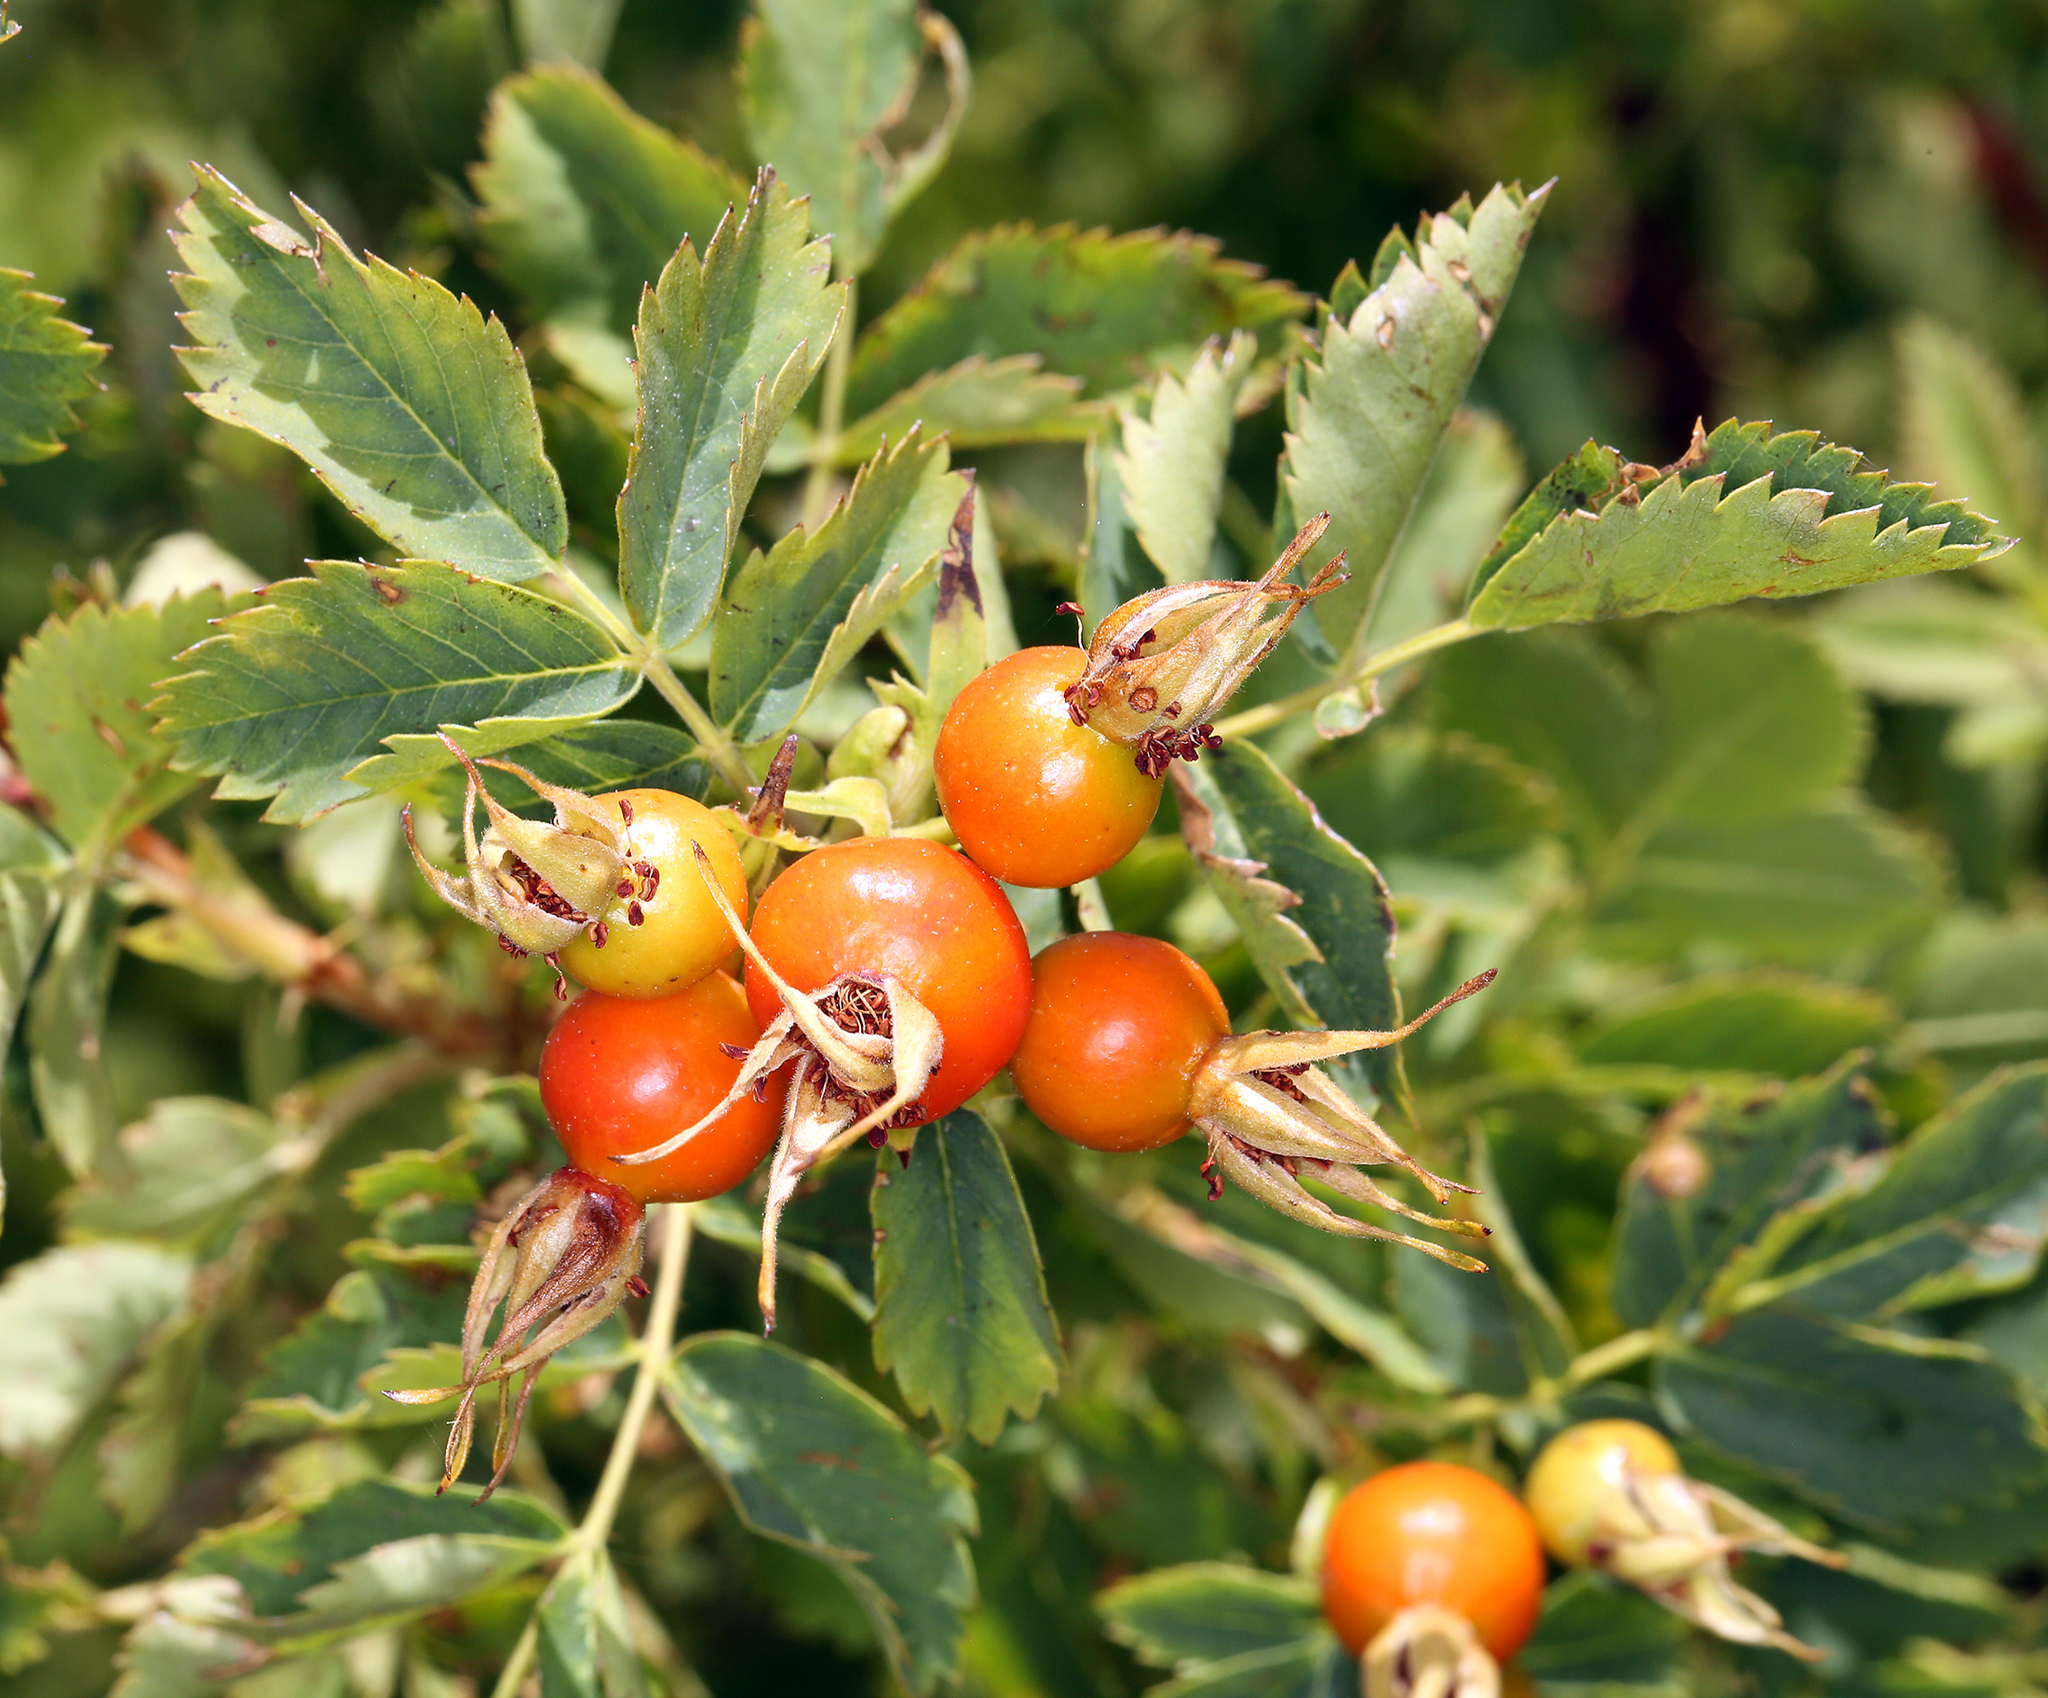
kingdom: Plantae
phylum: Tracheophyta
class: Magnoliopsida
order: Rosales
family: Rosaceae
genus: Rosa
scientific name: Rosa woodsii
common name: Woods's rose
